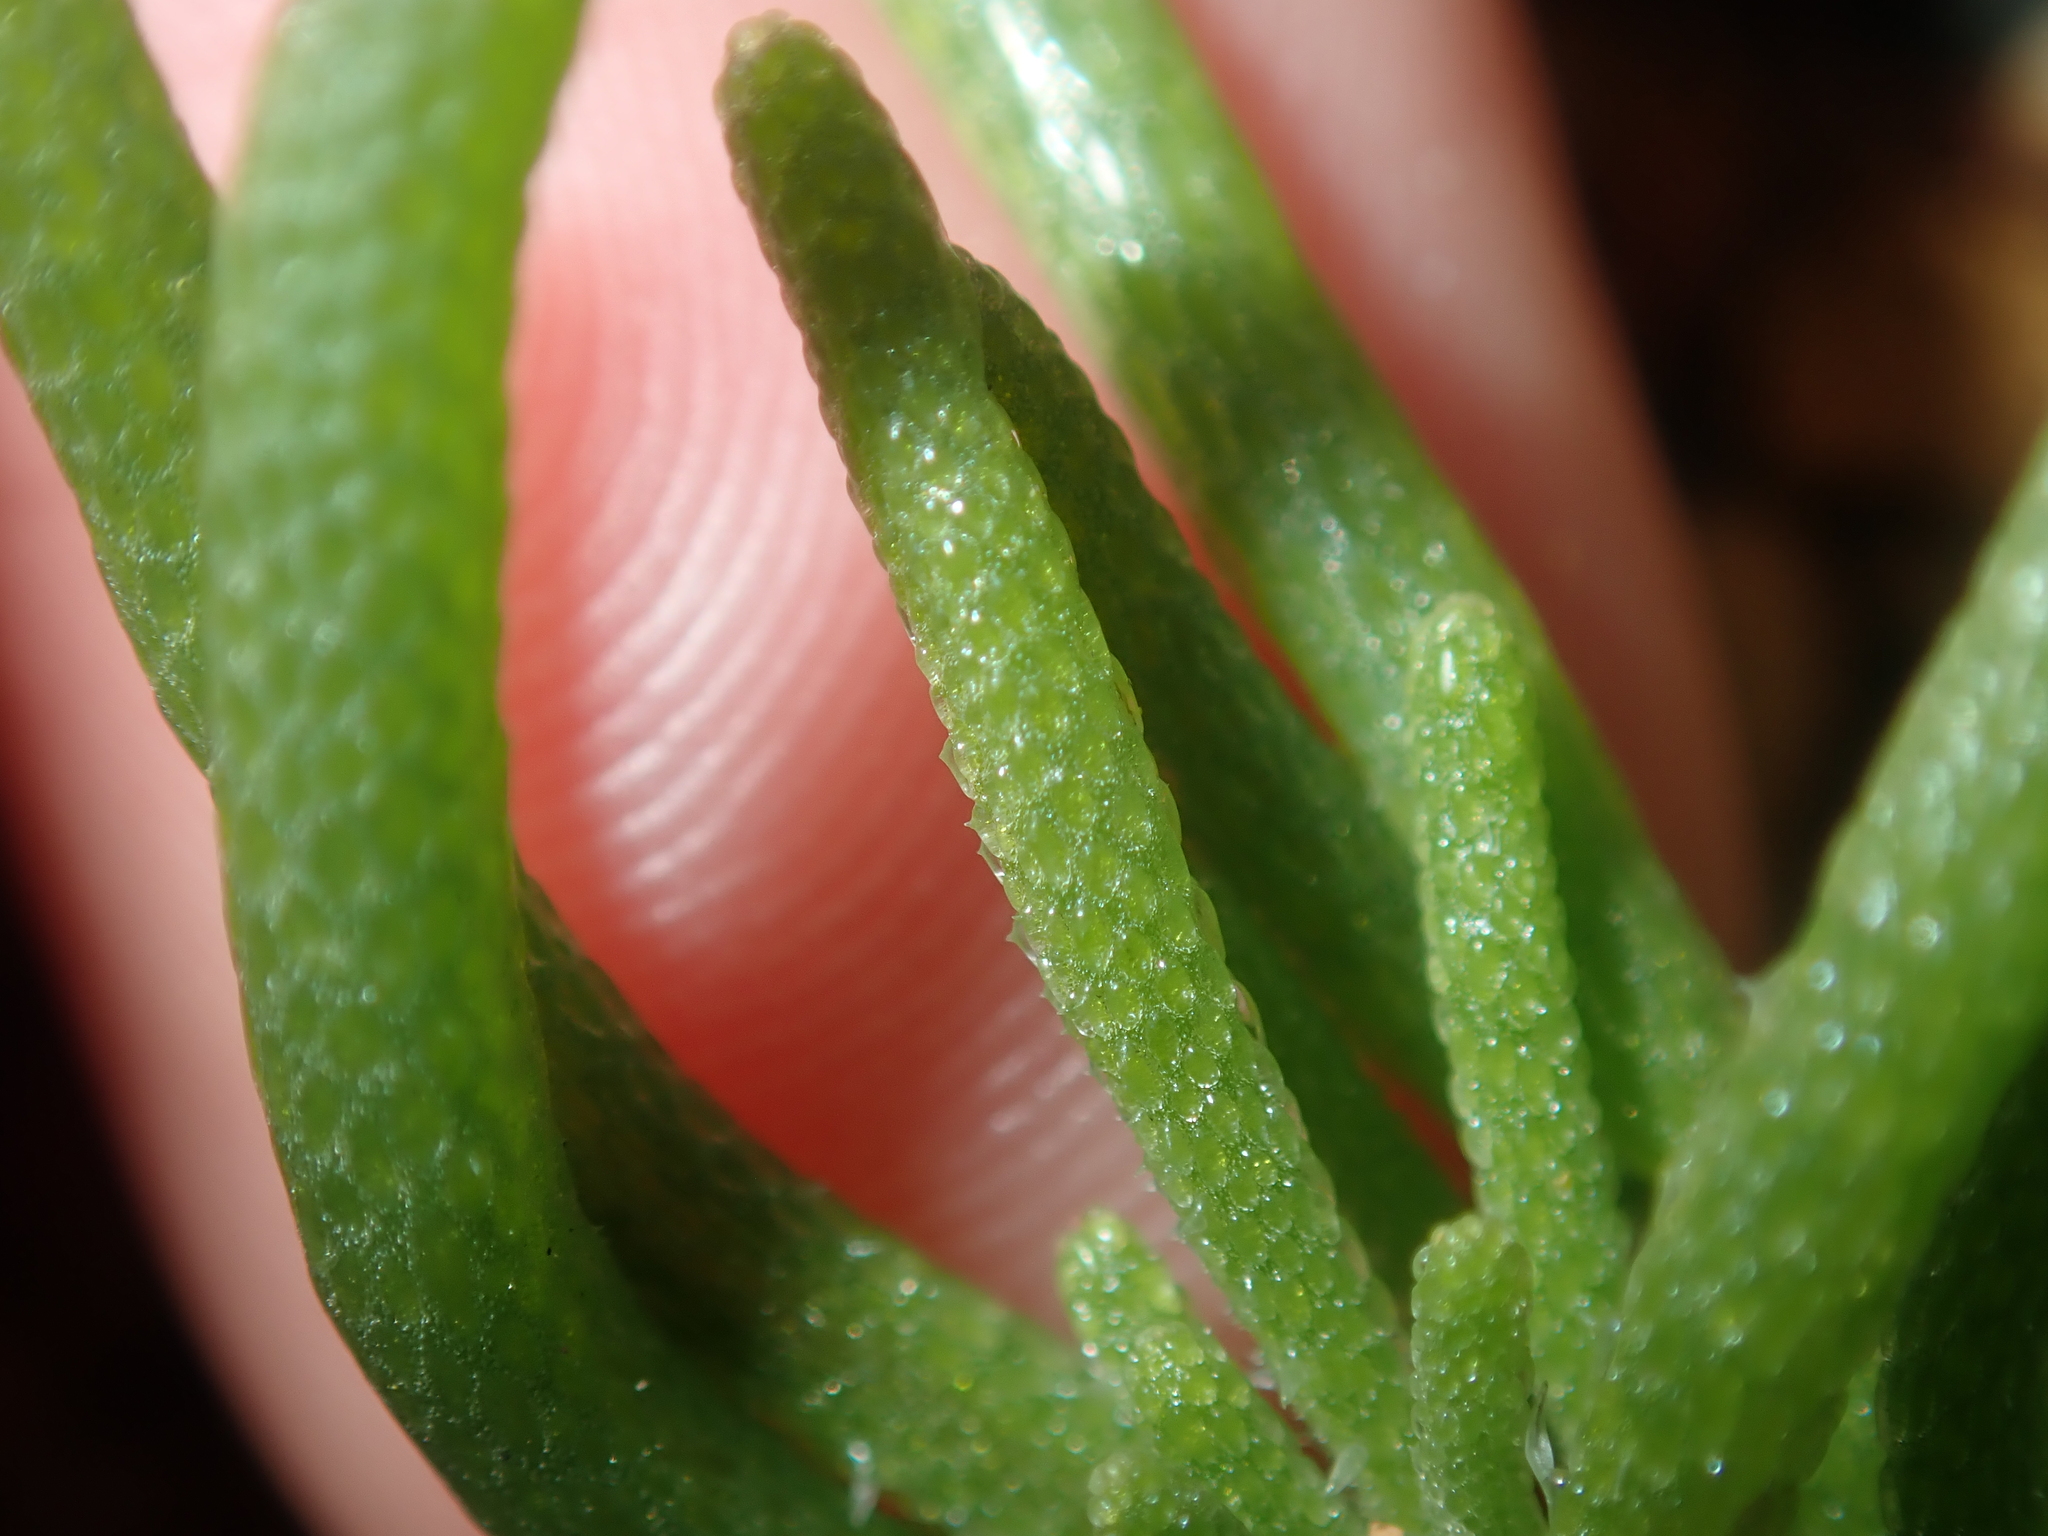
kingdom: Plantae
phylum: Tracheophyta
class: Magnoliopsida
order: Caryophyllales
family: Aizoaceae
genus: Mesembryanthemum
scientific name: Mesembryanthemum nodiflorum
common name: Slenderleaf iceplant
